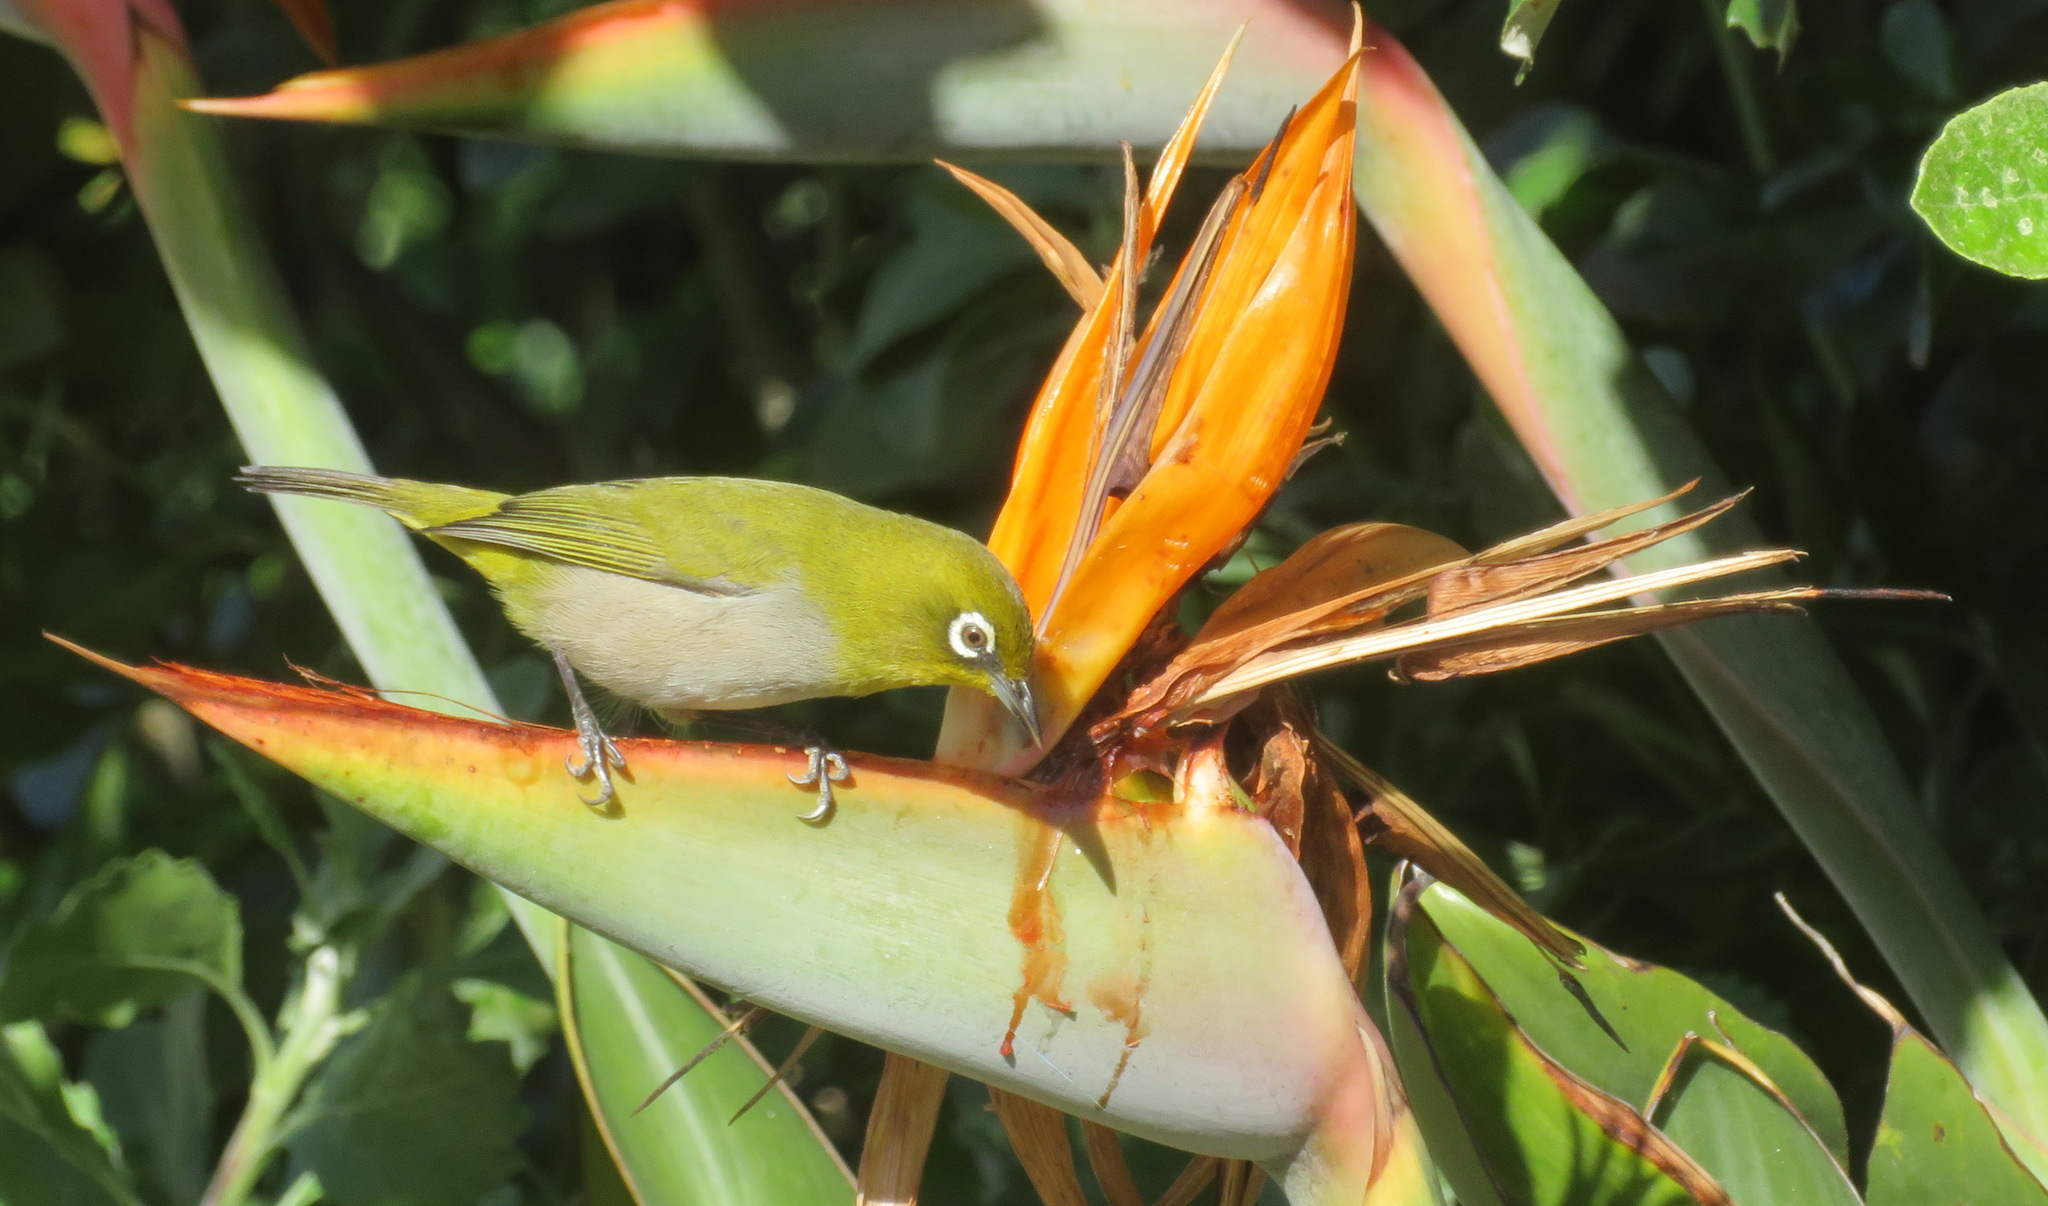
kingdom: Animalia
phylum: Chordata
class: Aves
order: Passeriformes
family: Zosteropidae
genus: Zosterops
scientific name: Zosterops virens
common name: Cape white-eye
